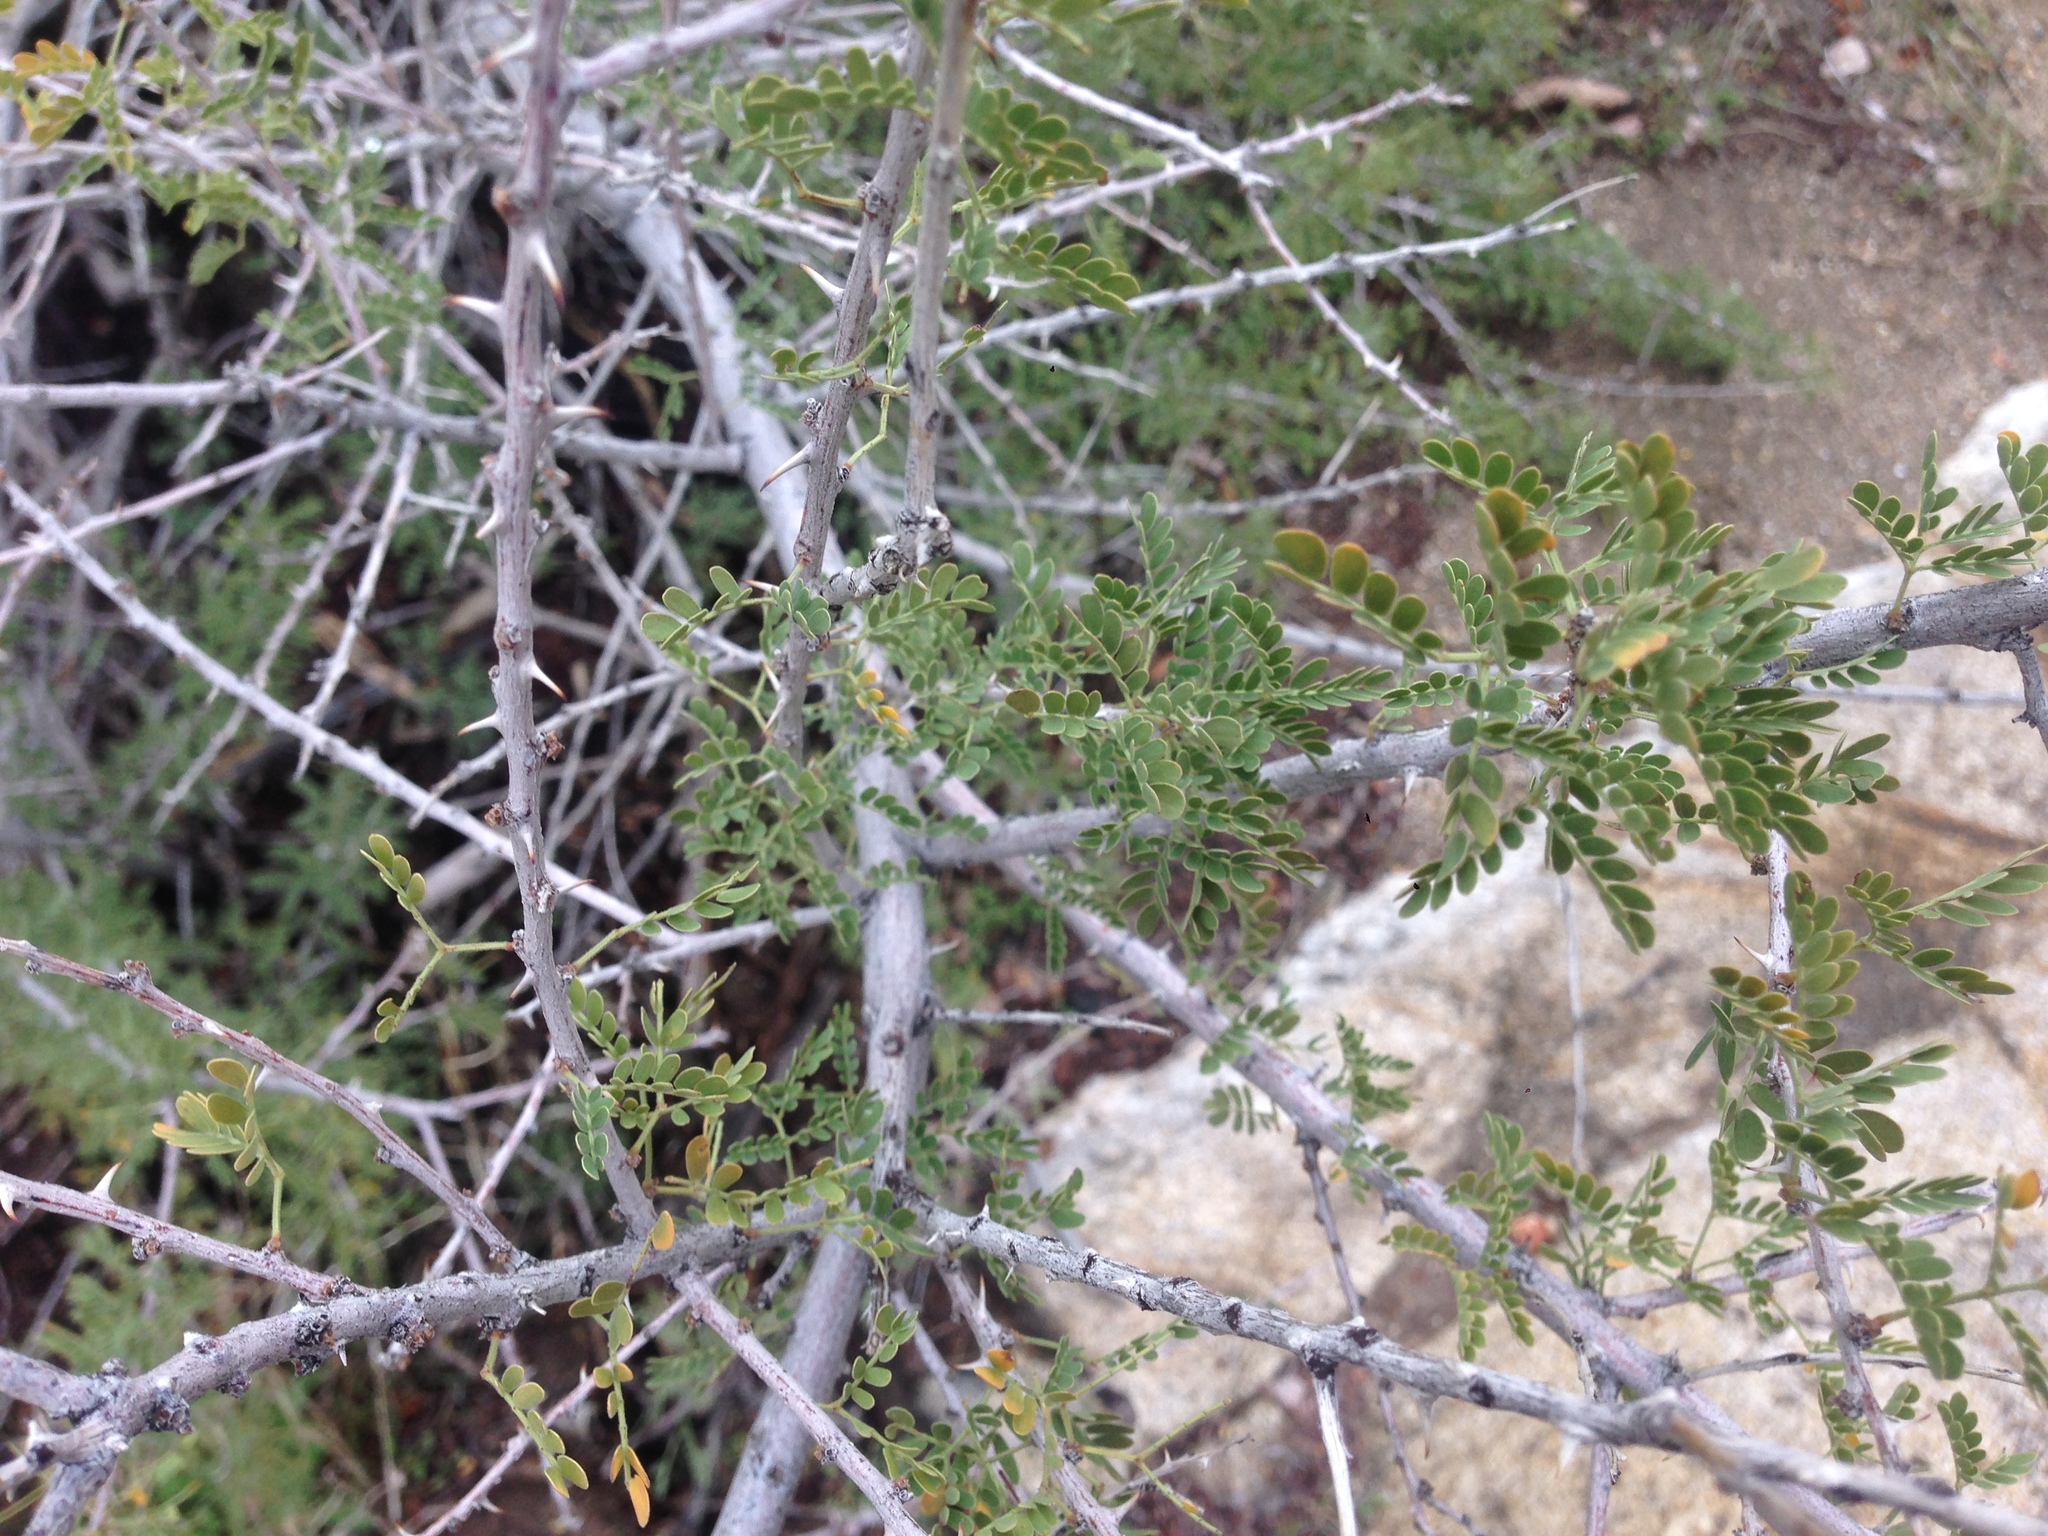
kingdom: Plantae
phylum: Tracheophyta
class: Magnoliopsida
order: Fabales
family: Fabaceae
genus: Senegalia
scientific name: Senegalia greggii
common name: Texas-mimosa
